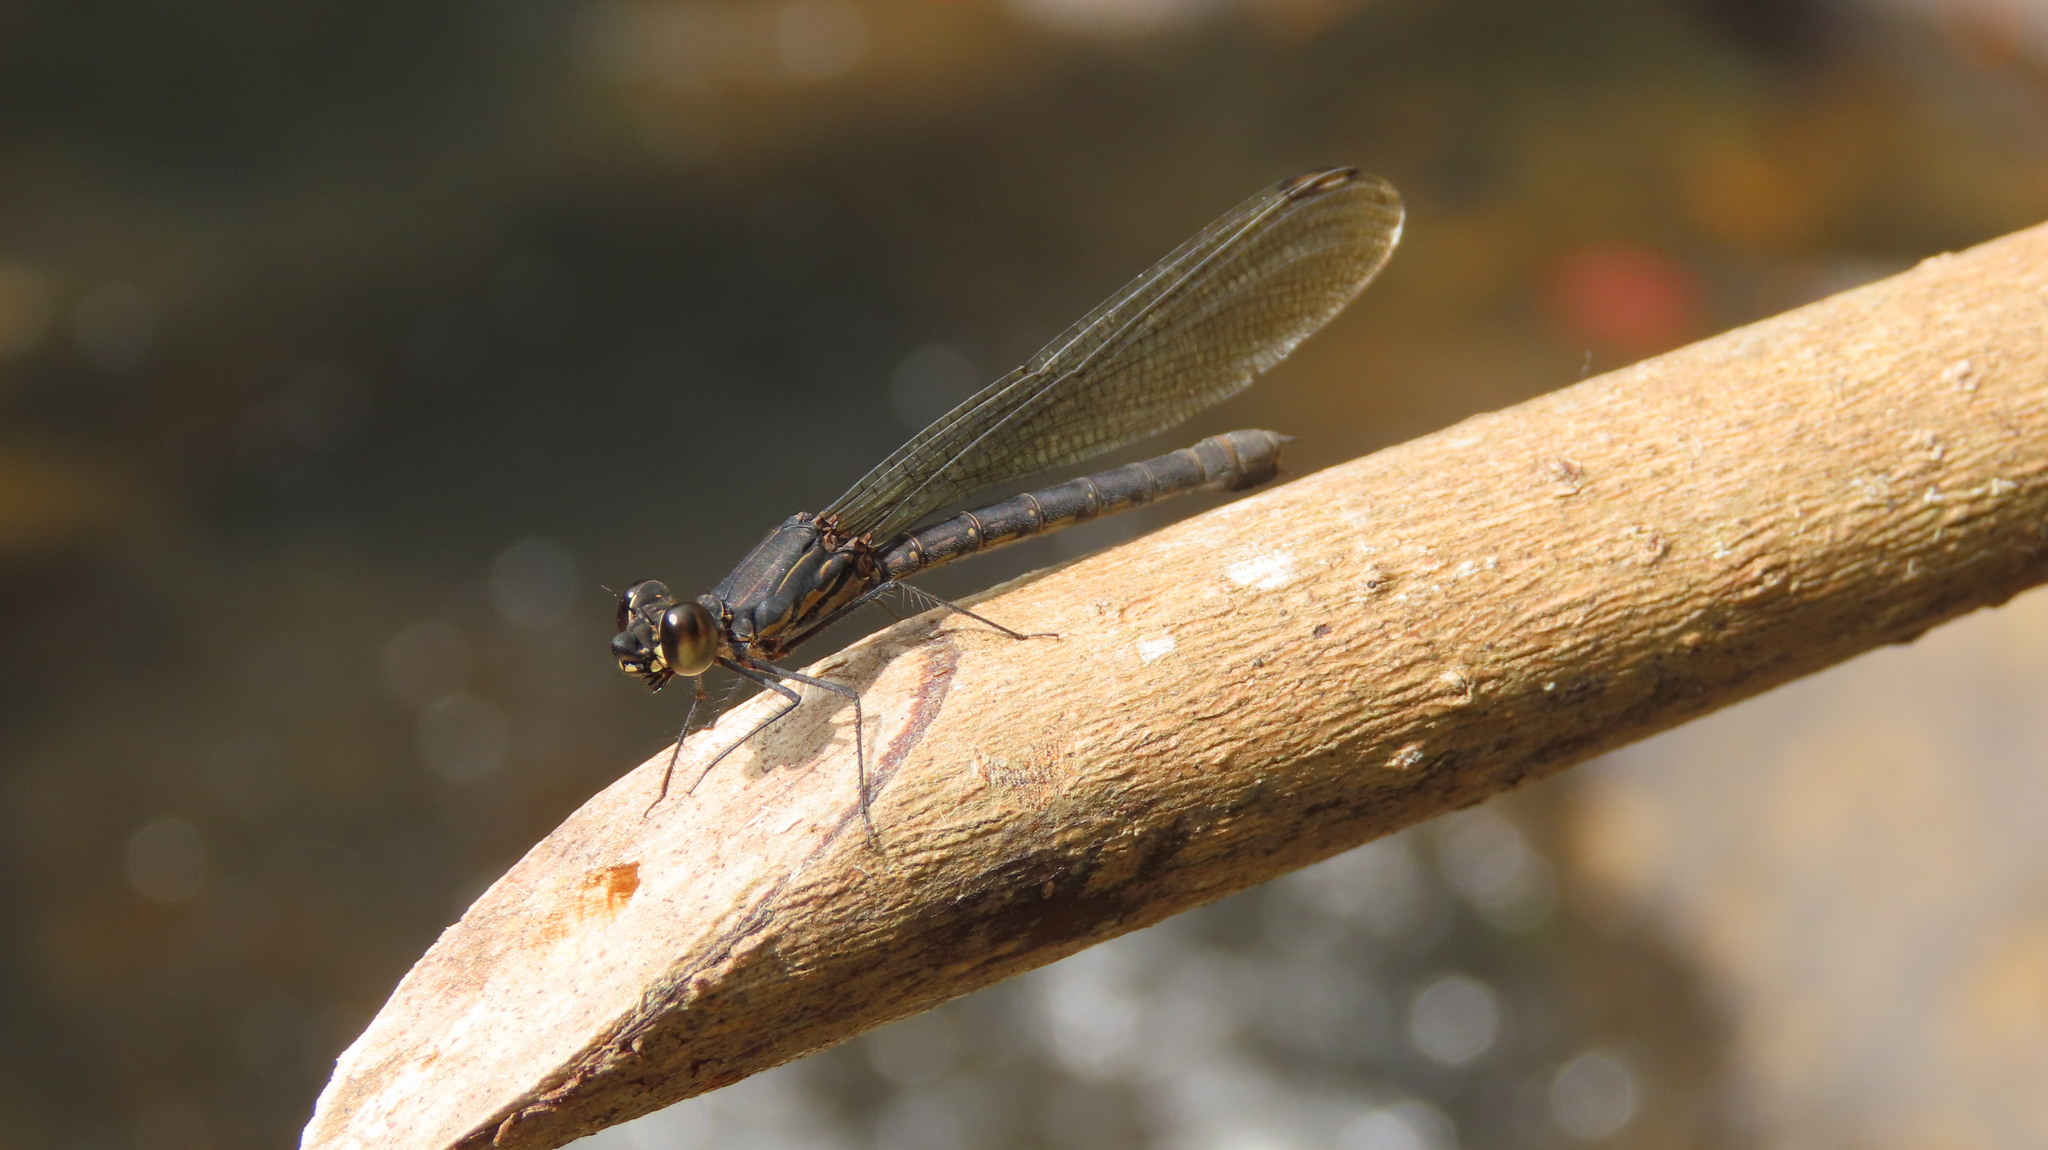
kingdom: Animalia
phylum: Arthropoda
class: Insecta
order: Odonata
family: Chlorocyphidae
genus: Heliocypha
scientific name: Heliocypha bisignata
